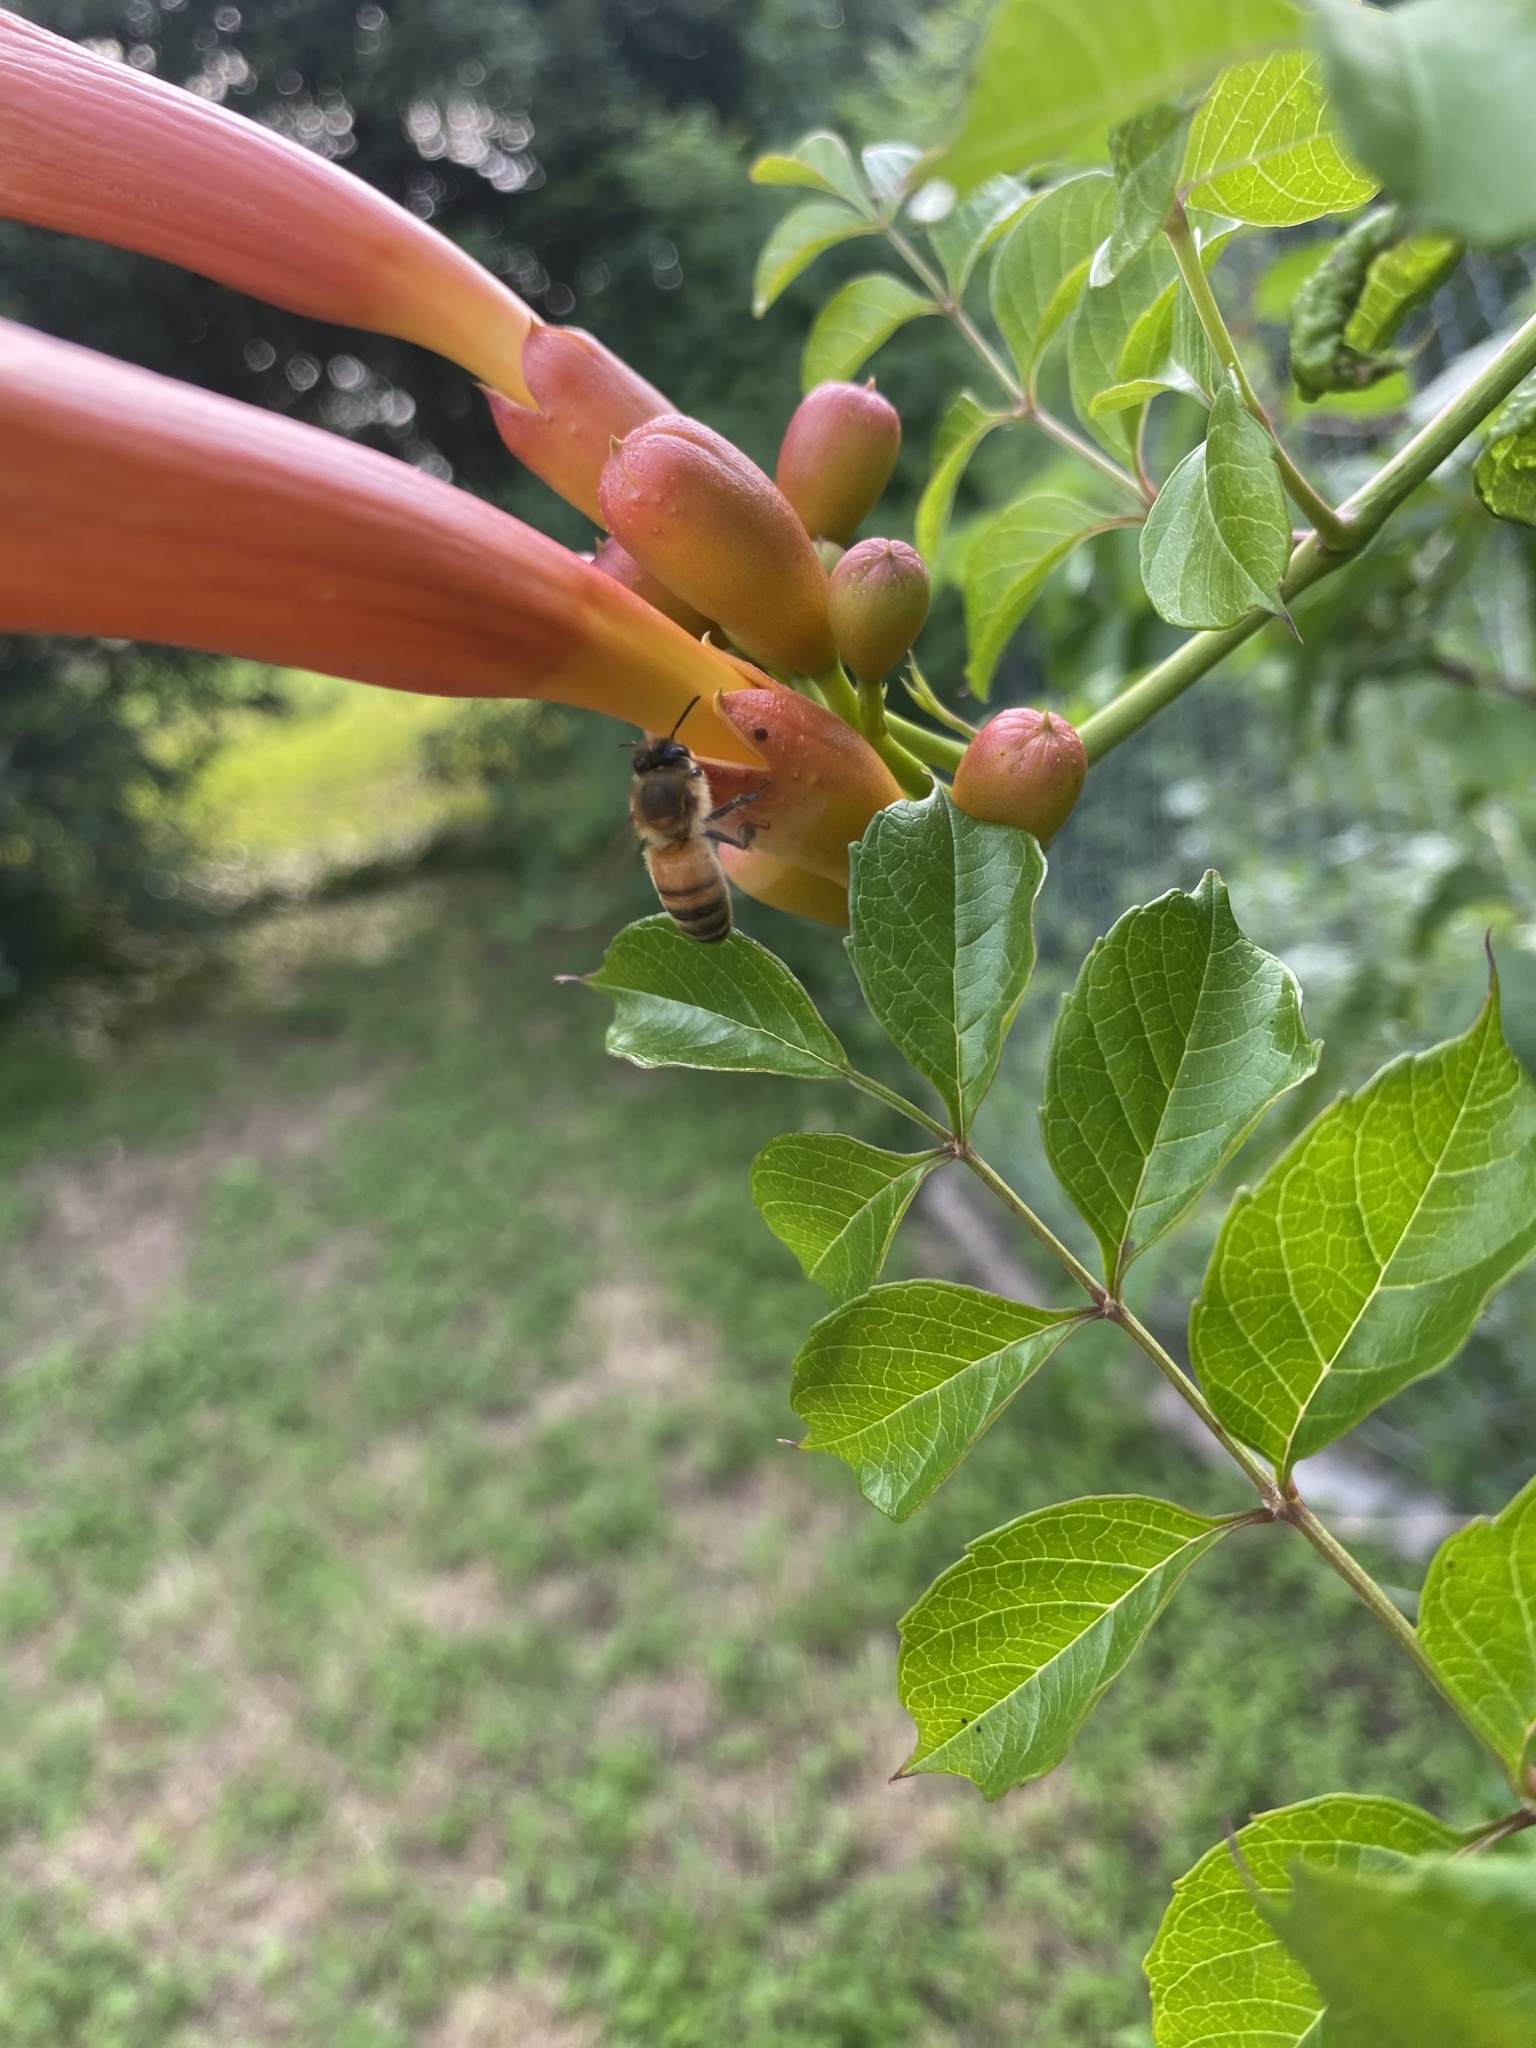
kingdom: Animalia
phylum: Arthropoda
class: Insecta
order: Hymenoptera
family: Apidae
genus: Apis
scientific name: Apis mellifera
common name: Honey bee
